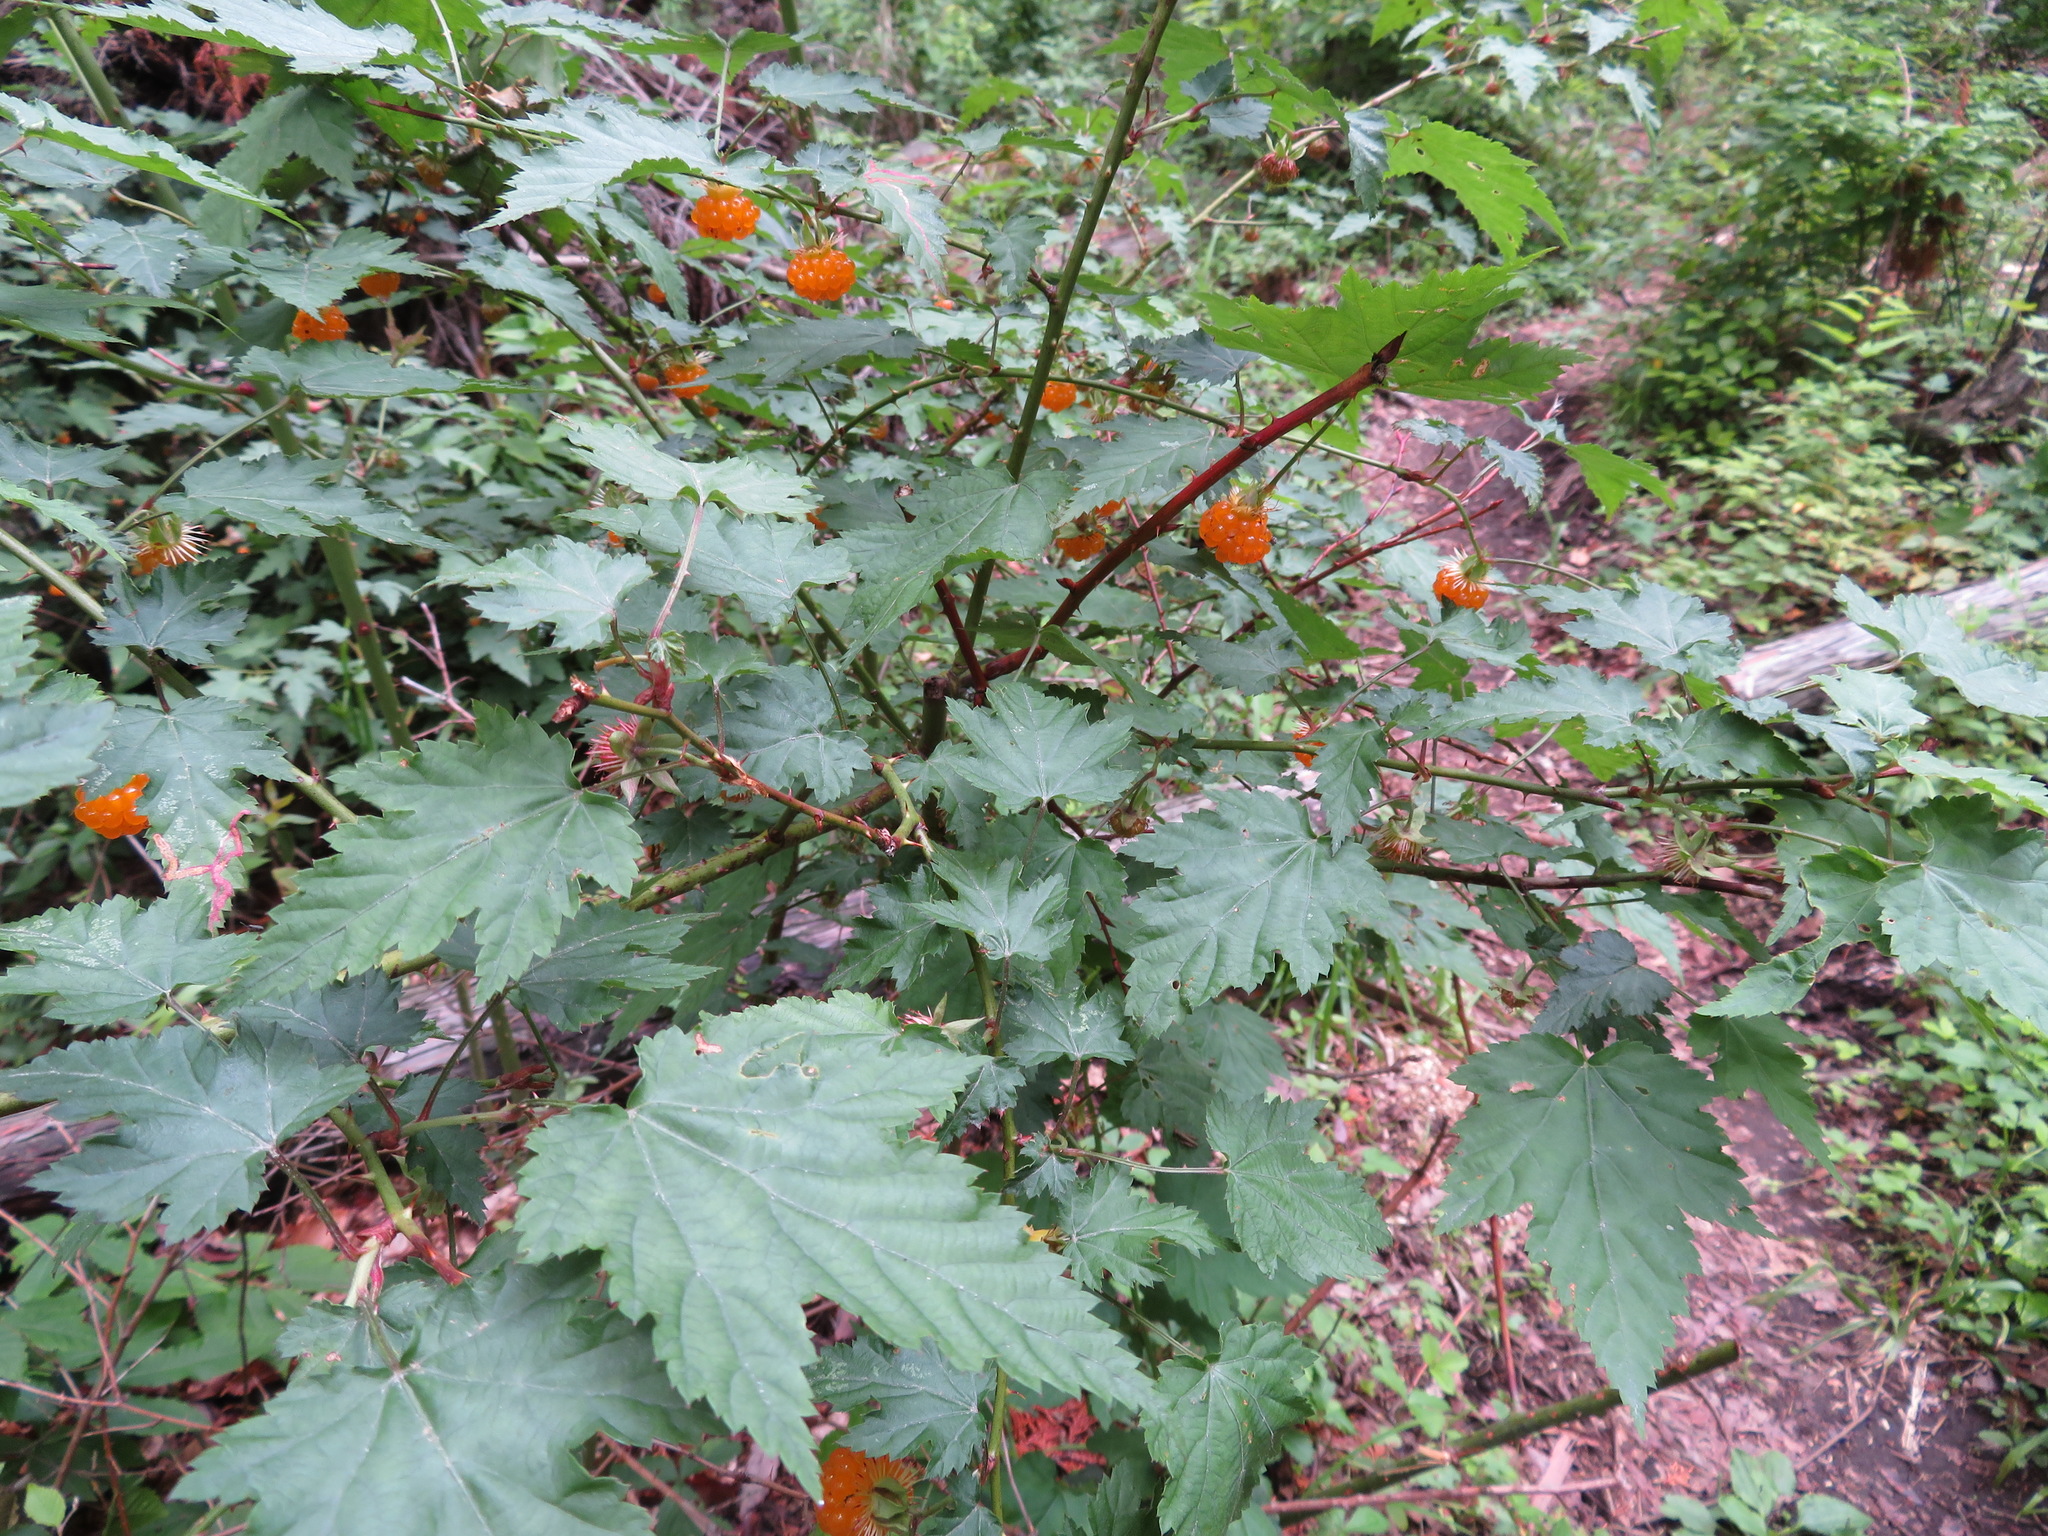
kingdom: Plantae
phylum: Tracheophyta
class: Magnoliopsida
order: Rosales
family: Rosaceae
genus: Rubus
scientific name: Rubus palmatus
